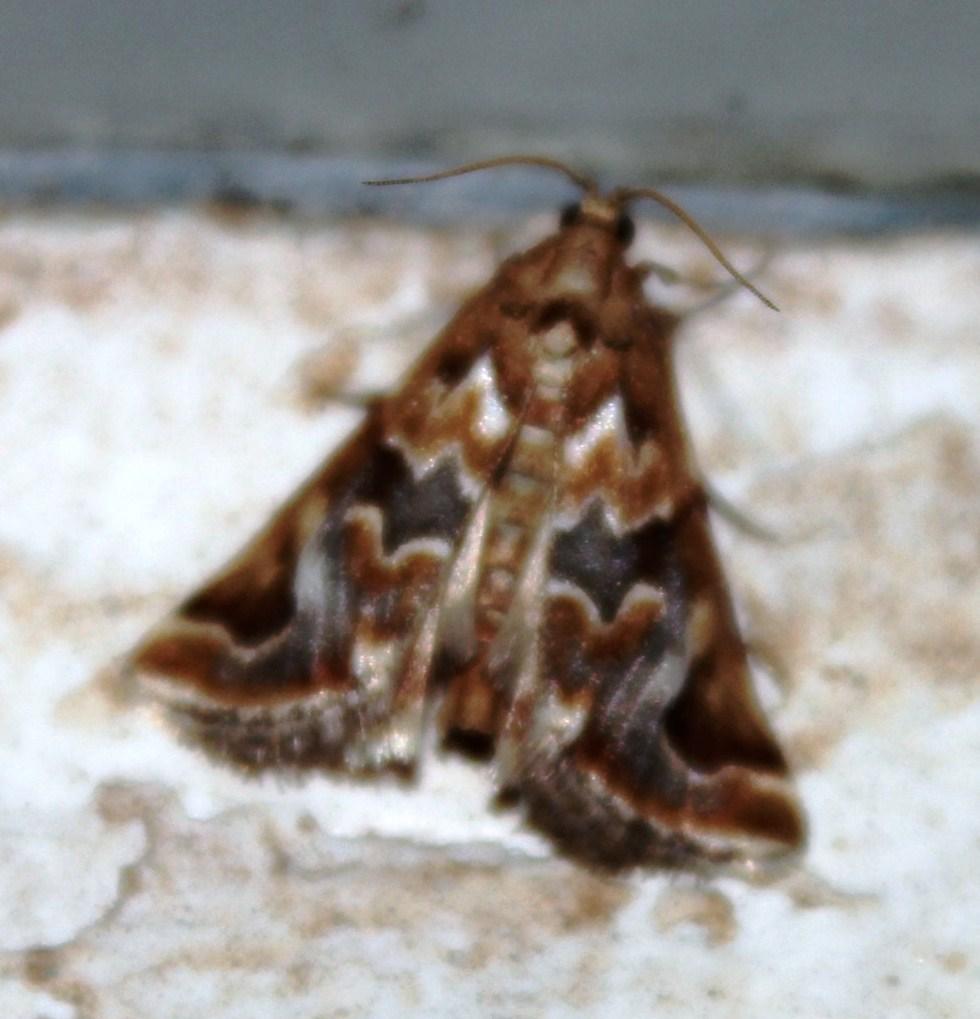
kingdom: Animalia
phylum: Arthropoda
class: Insecta
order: Lepidoptera
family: Pyralidae
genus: Dattinia
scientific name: Dattinia bolinalis
